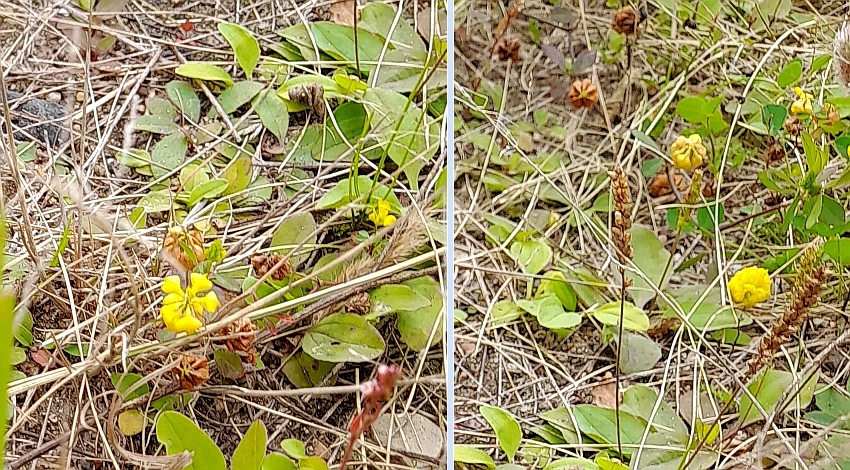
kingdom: Plantae
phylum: Tracheophyta
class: Magnoliopsida
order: Fabales
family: Fabaceae
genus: Trifolium
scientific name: Trifolium campestre
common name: Field clover
